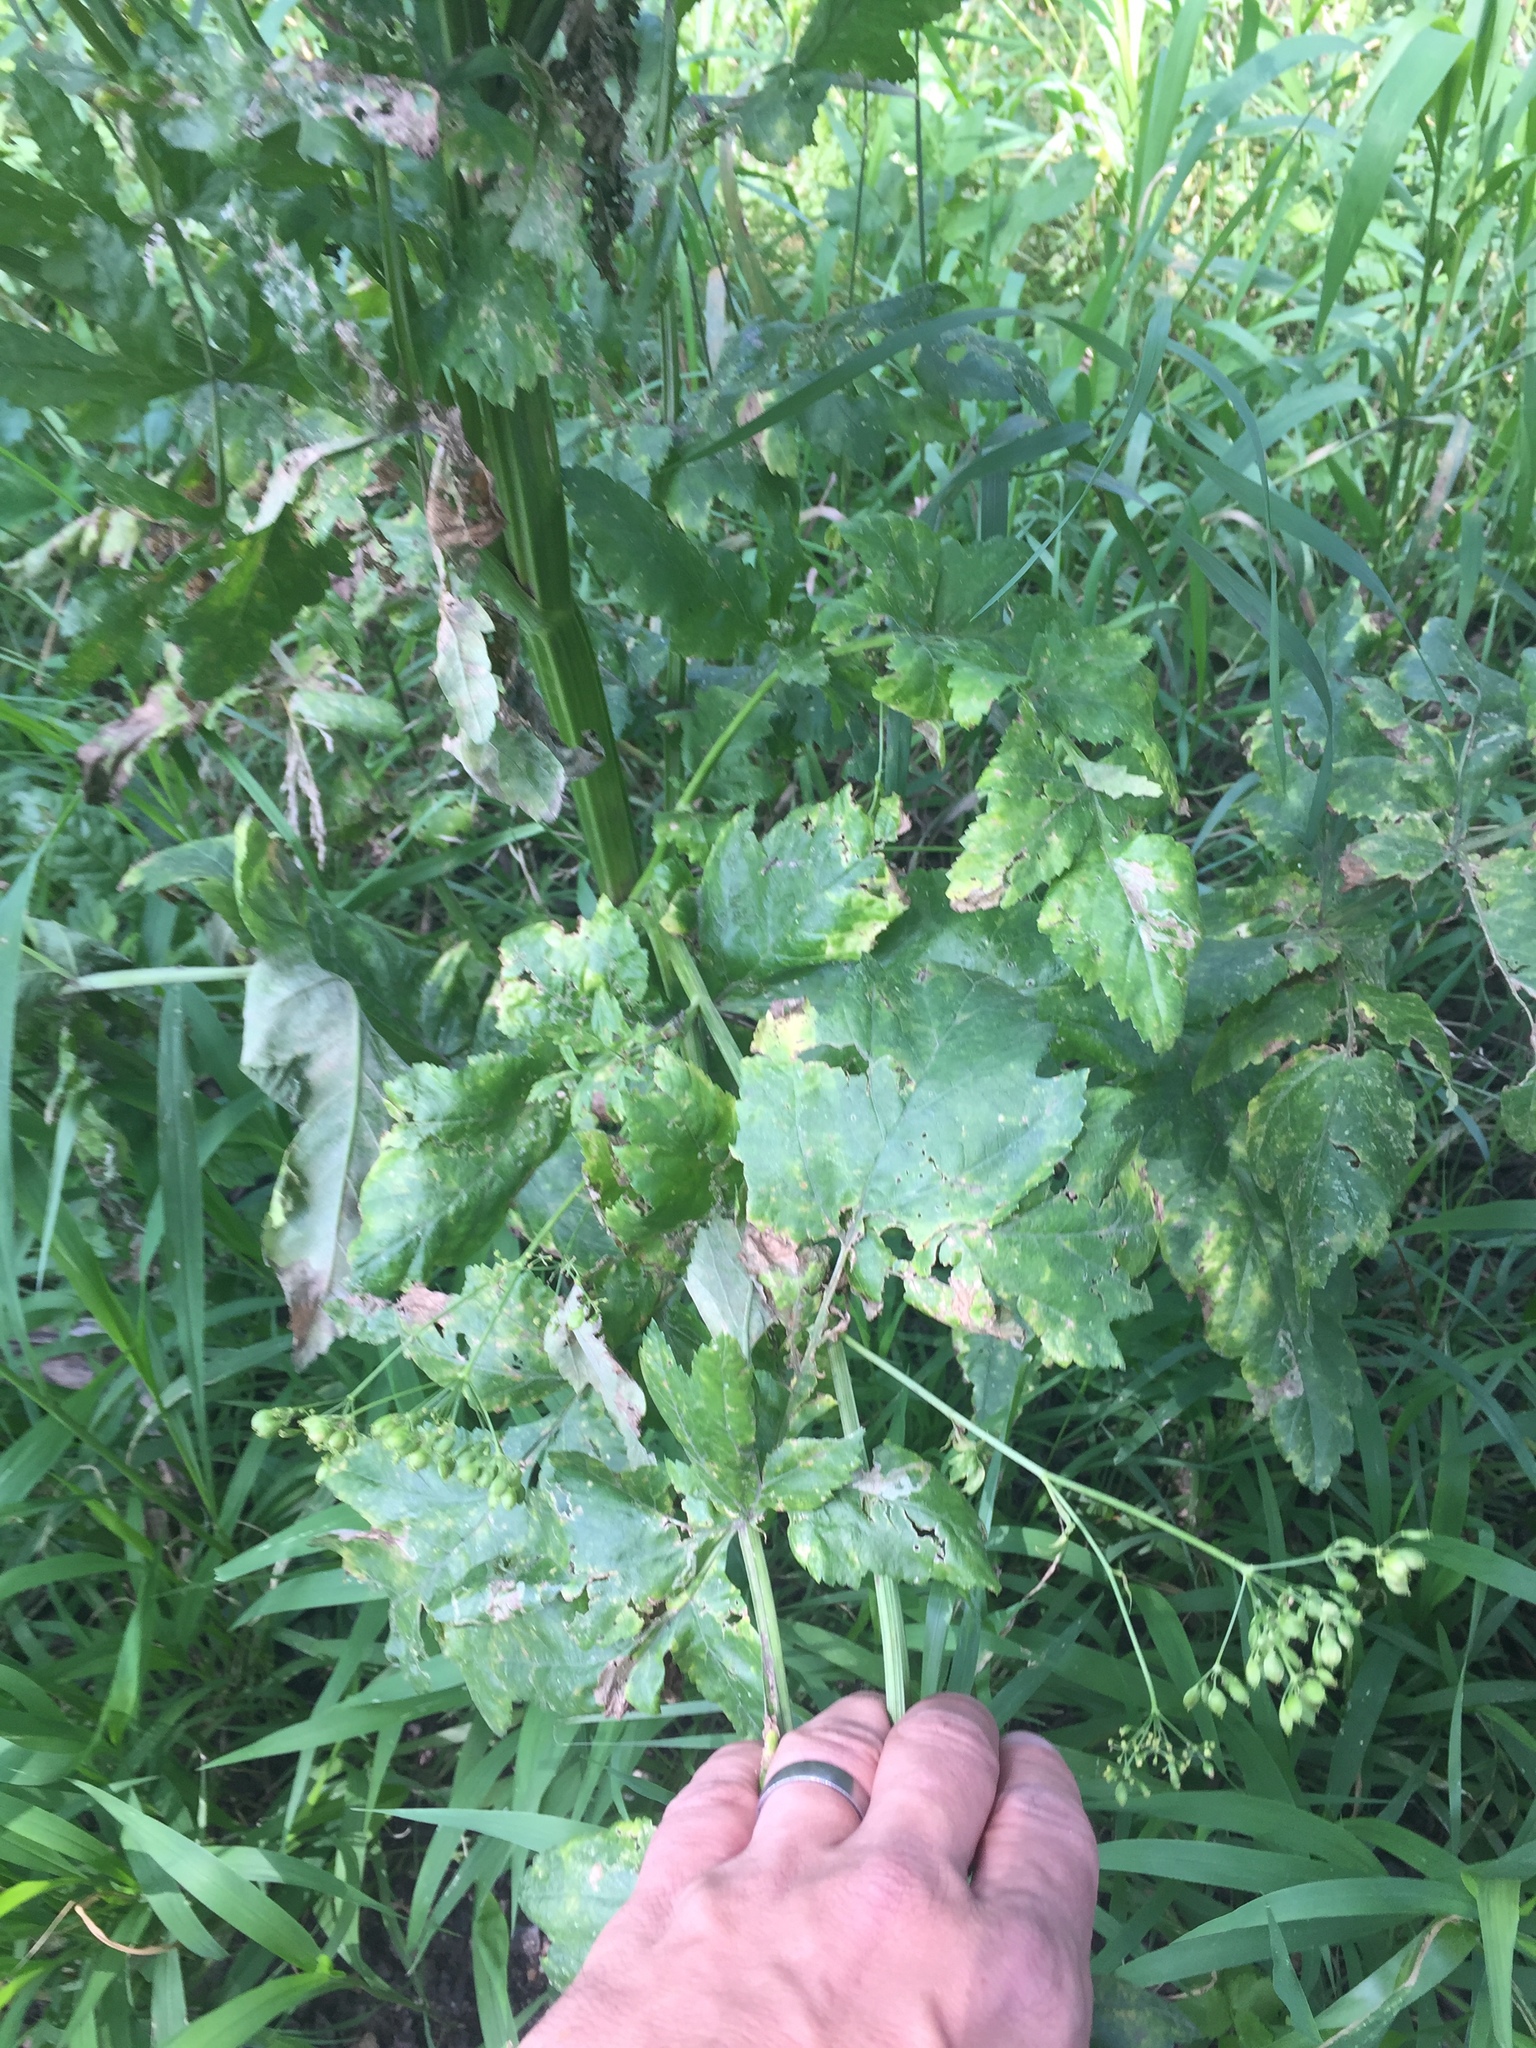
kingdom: Plantae
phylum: Tracheophyta
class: Magnoliopsida
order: Apiales
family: Apiaceae
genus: Pastinaca
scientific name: Pastinaca sativa
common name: Wild parsnip
